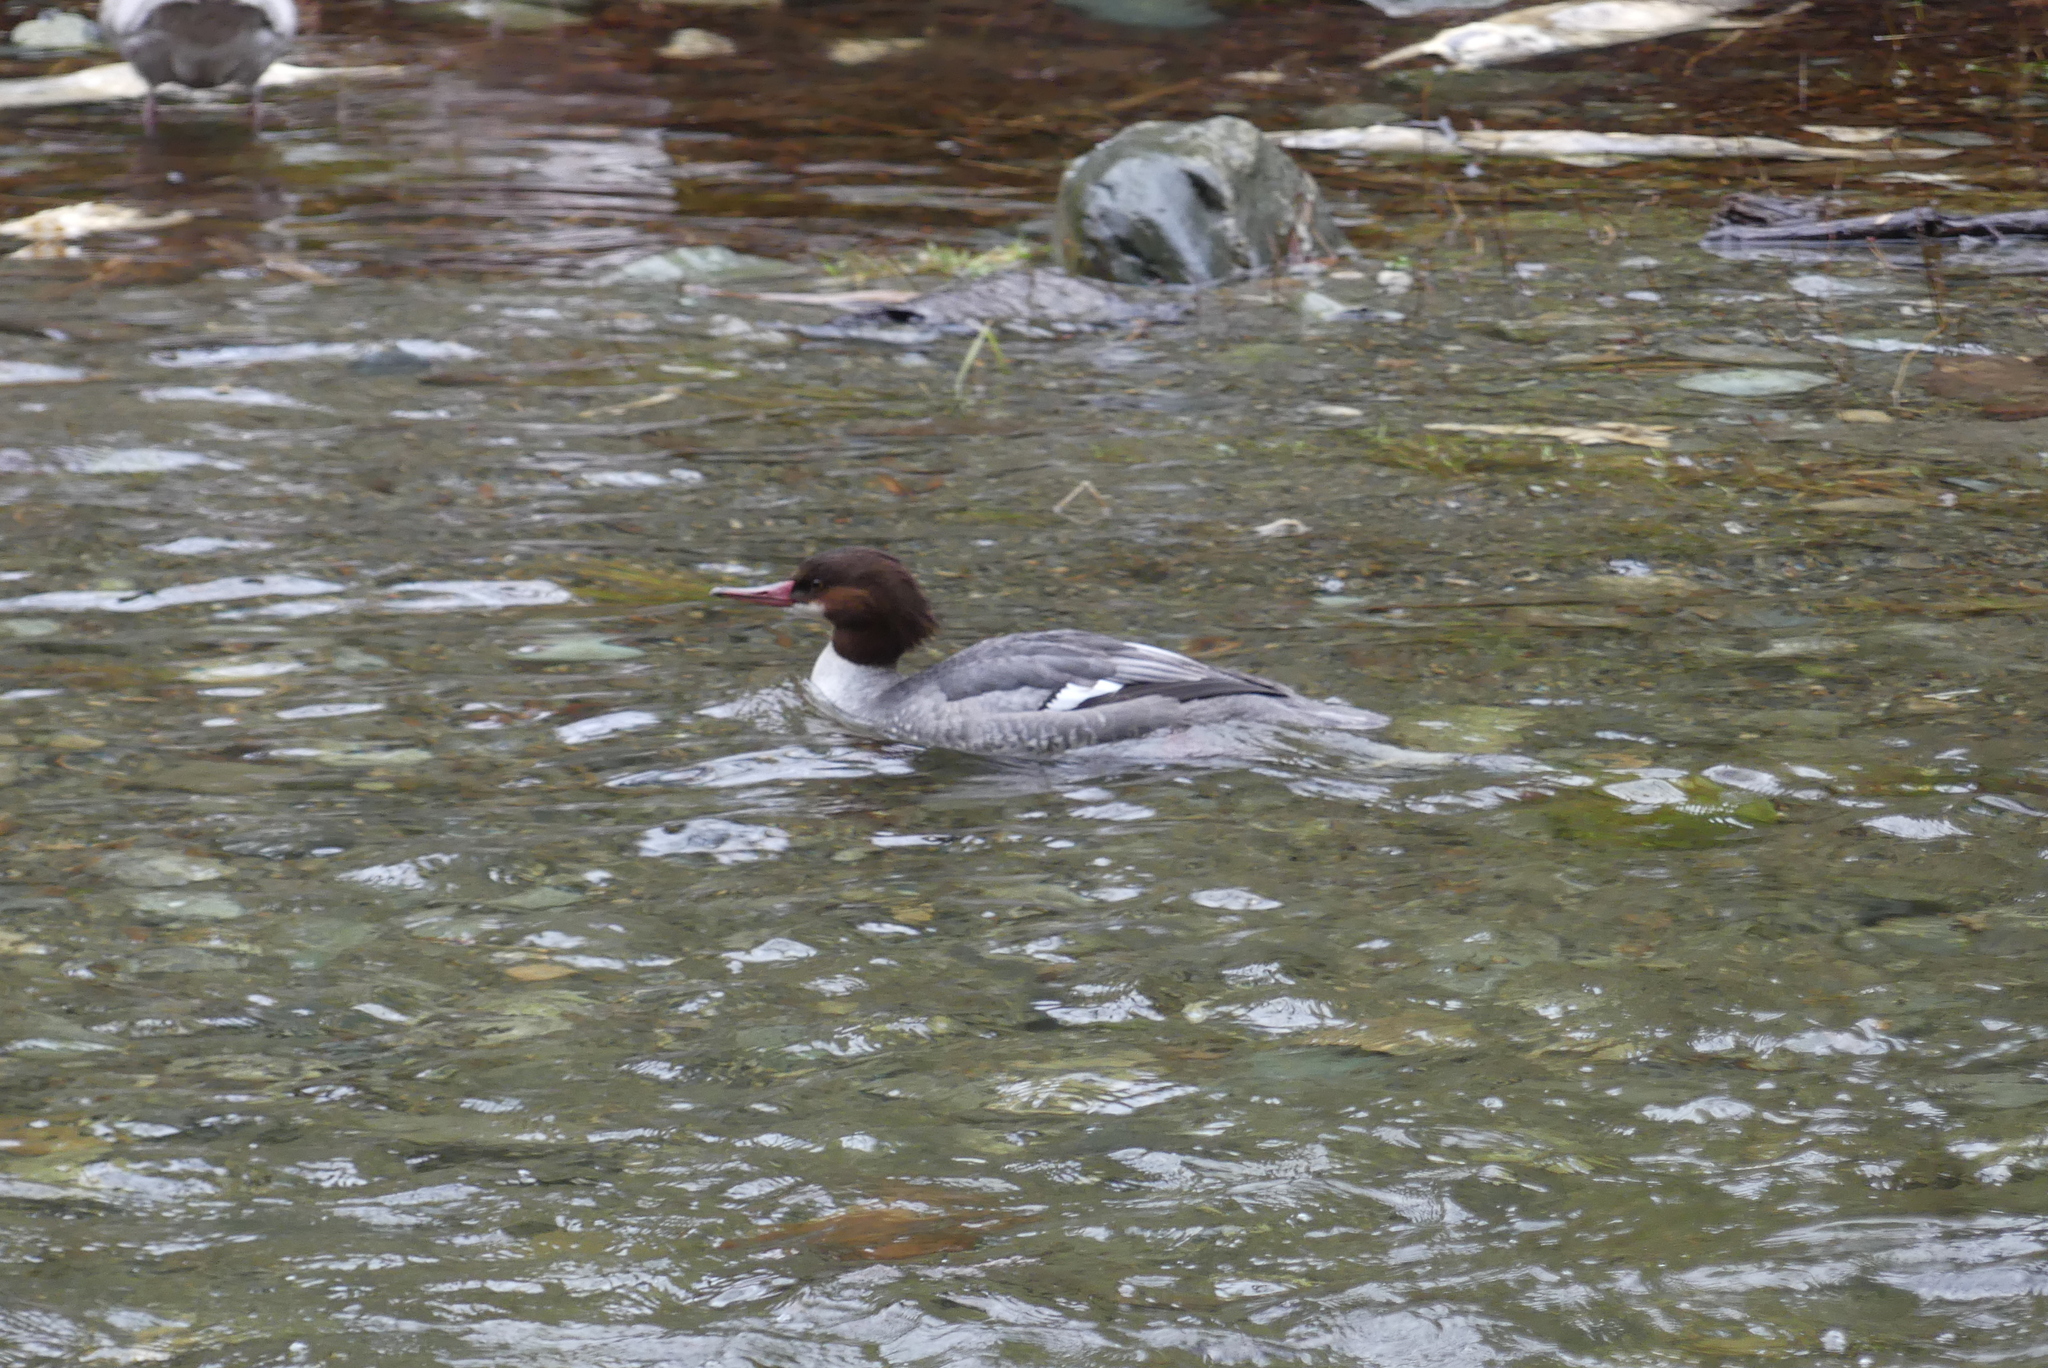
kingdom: Animalia
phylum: Chordata
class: Aves
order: Anseriformes
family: Anatidae
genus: Mergus
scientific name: Mergus merganser
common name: Common merganser
